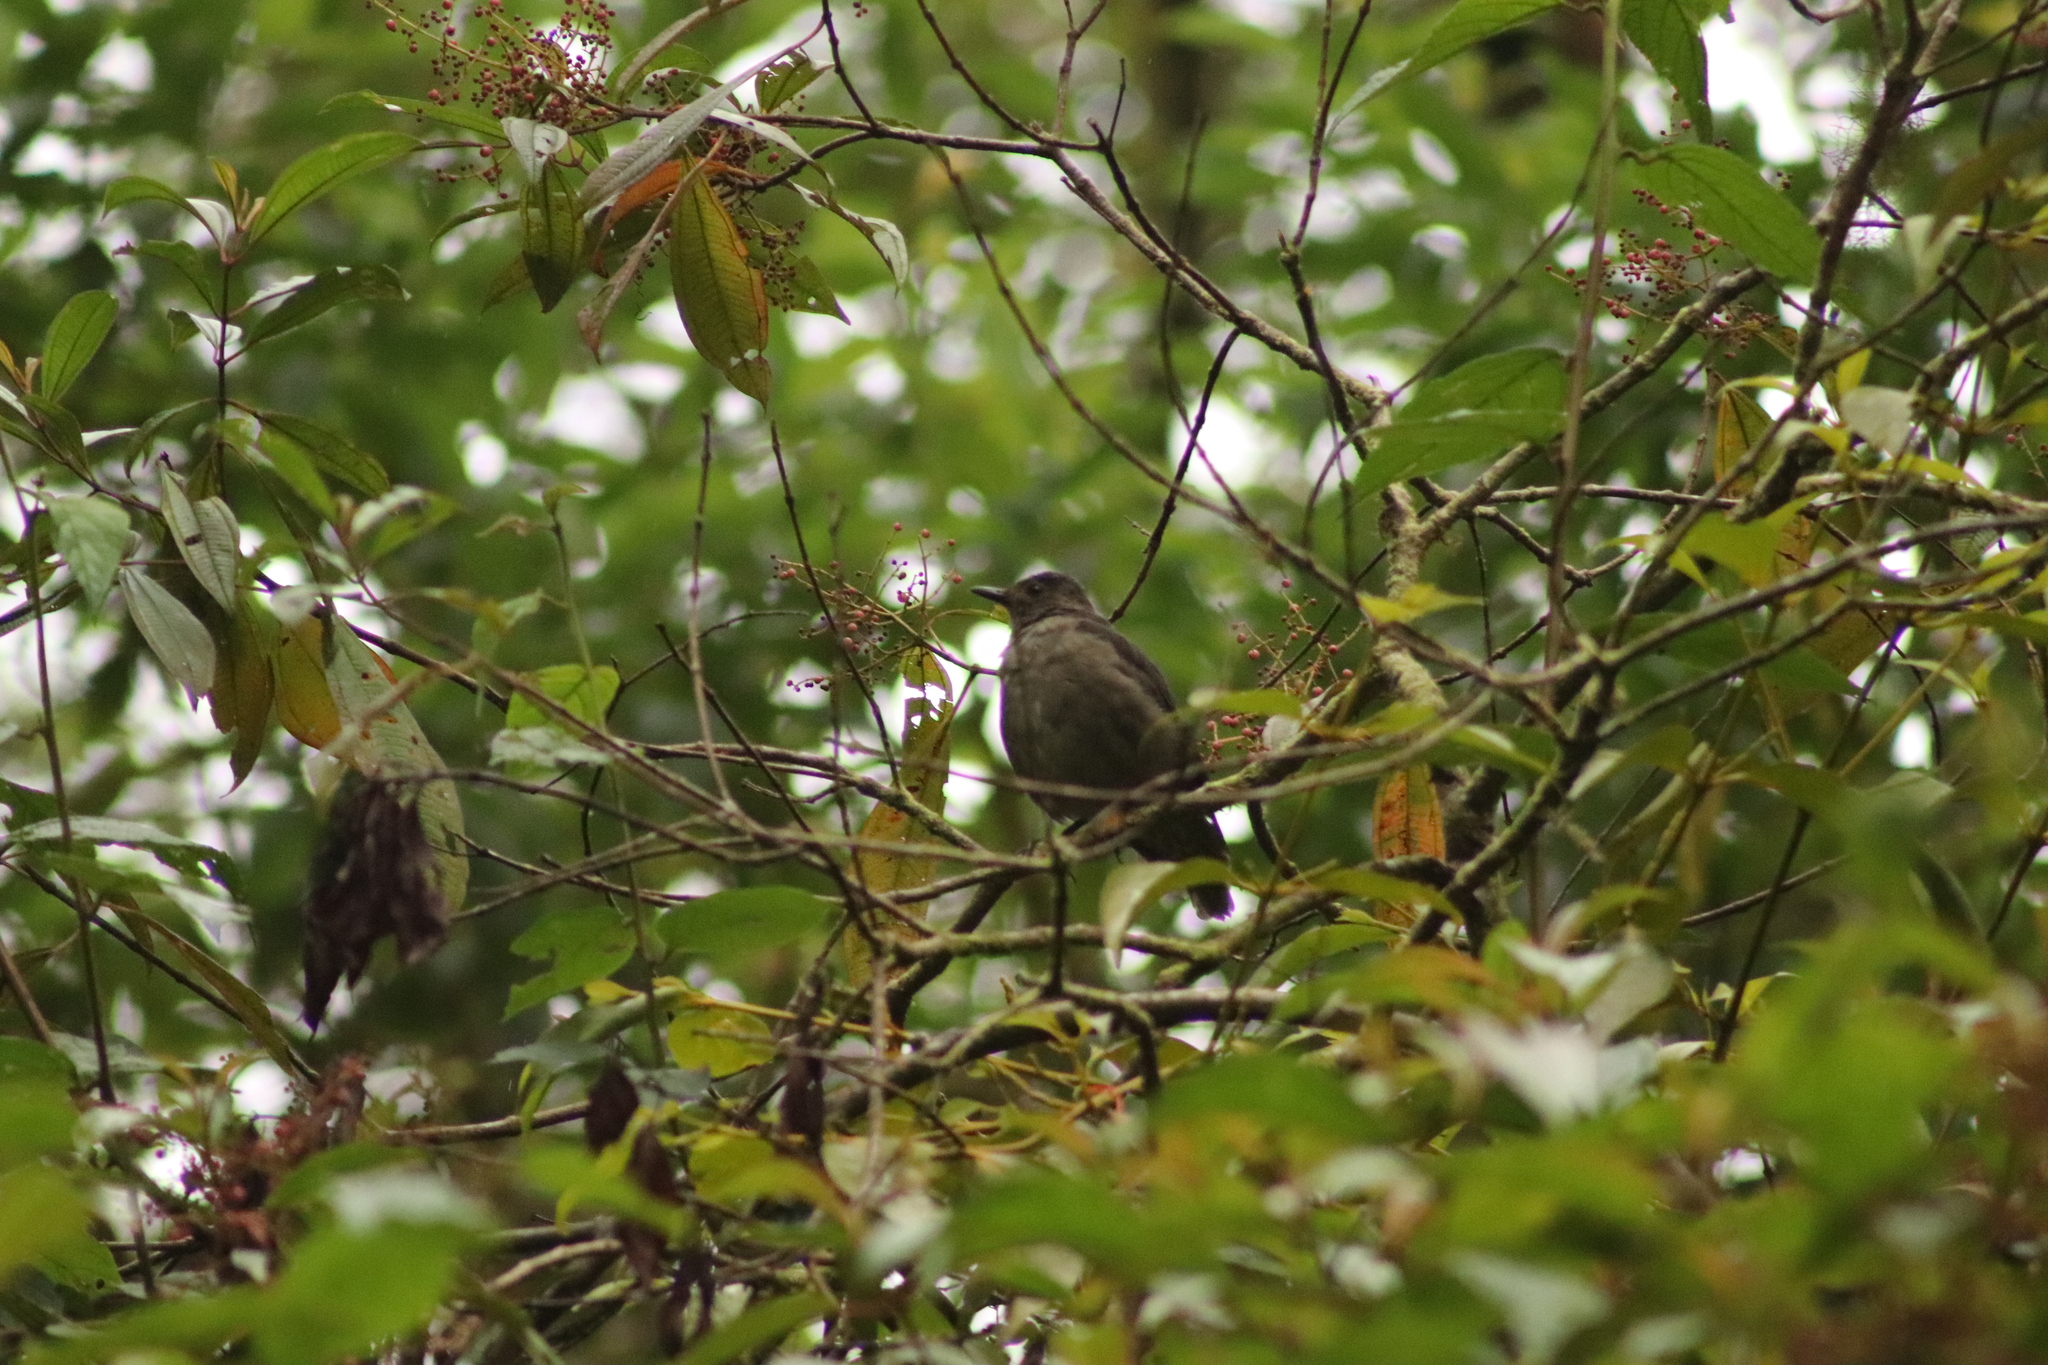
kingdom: Animalia
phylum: Chordata
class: Aves
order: Passeriformes
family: Turdidae
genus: Turdus
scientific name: Turdus plebejus
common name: Mountain thrush
